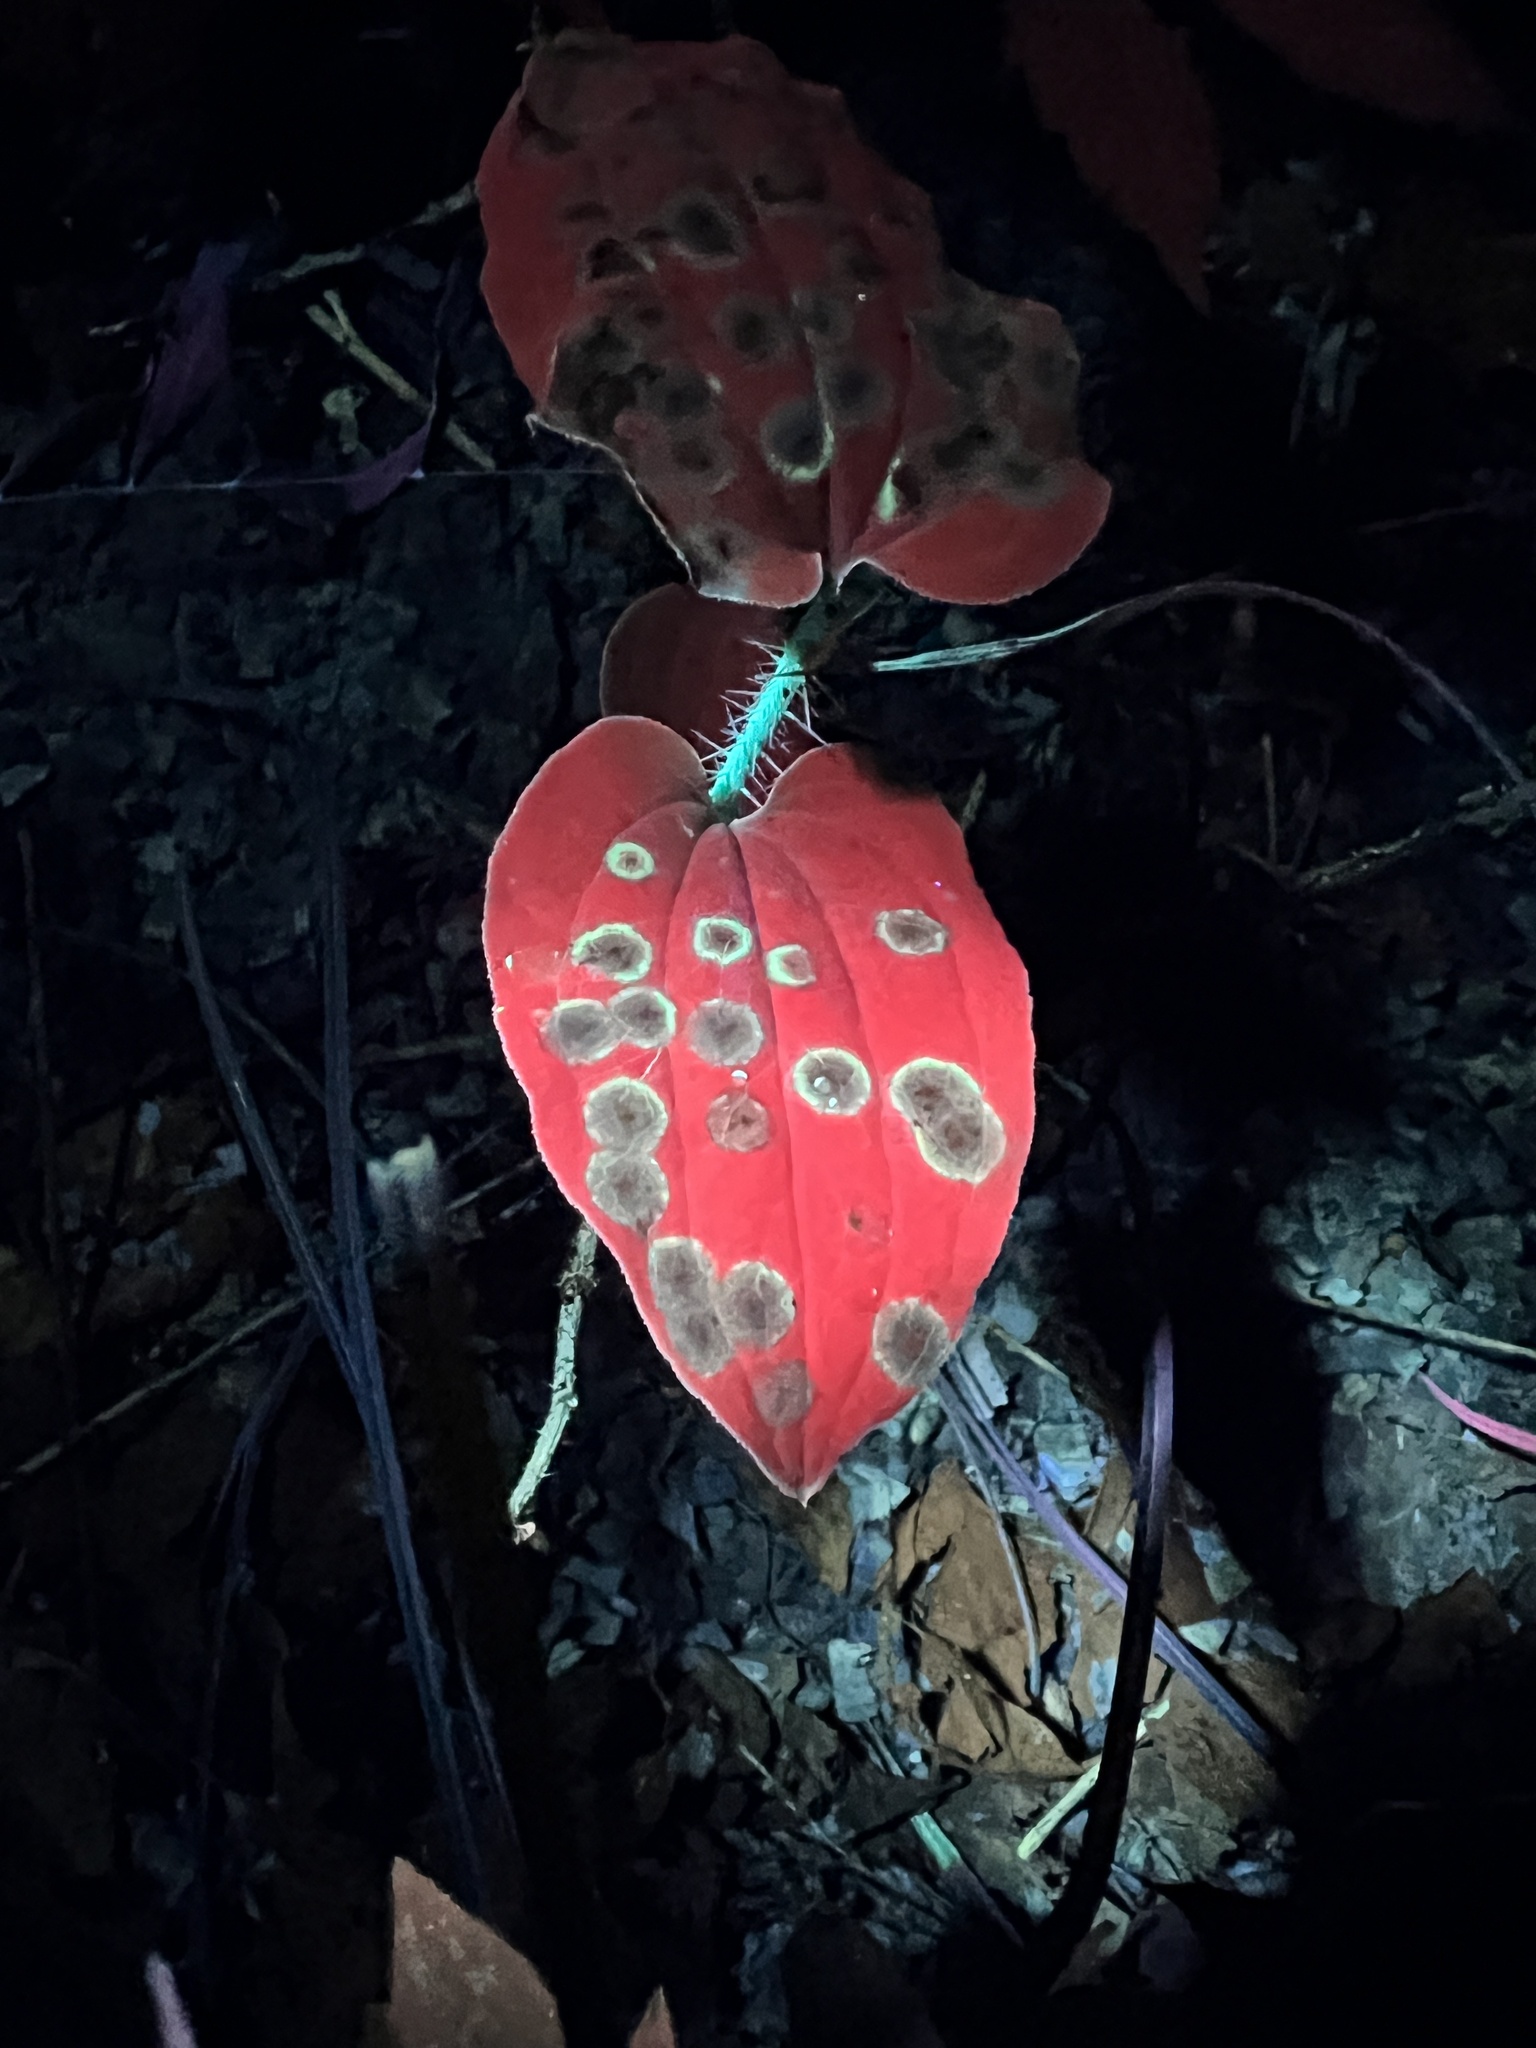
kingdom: Fungi
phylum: Ascomycota
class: Dothideomycetes
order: Botryosphaeriales
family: Botryosphaeriaceae
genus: Botryosphaeria
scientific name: Botryosphaeria dothidea
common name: Asteromyia gall midge fungus
